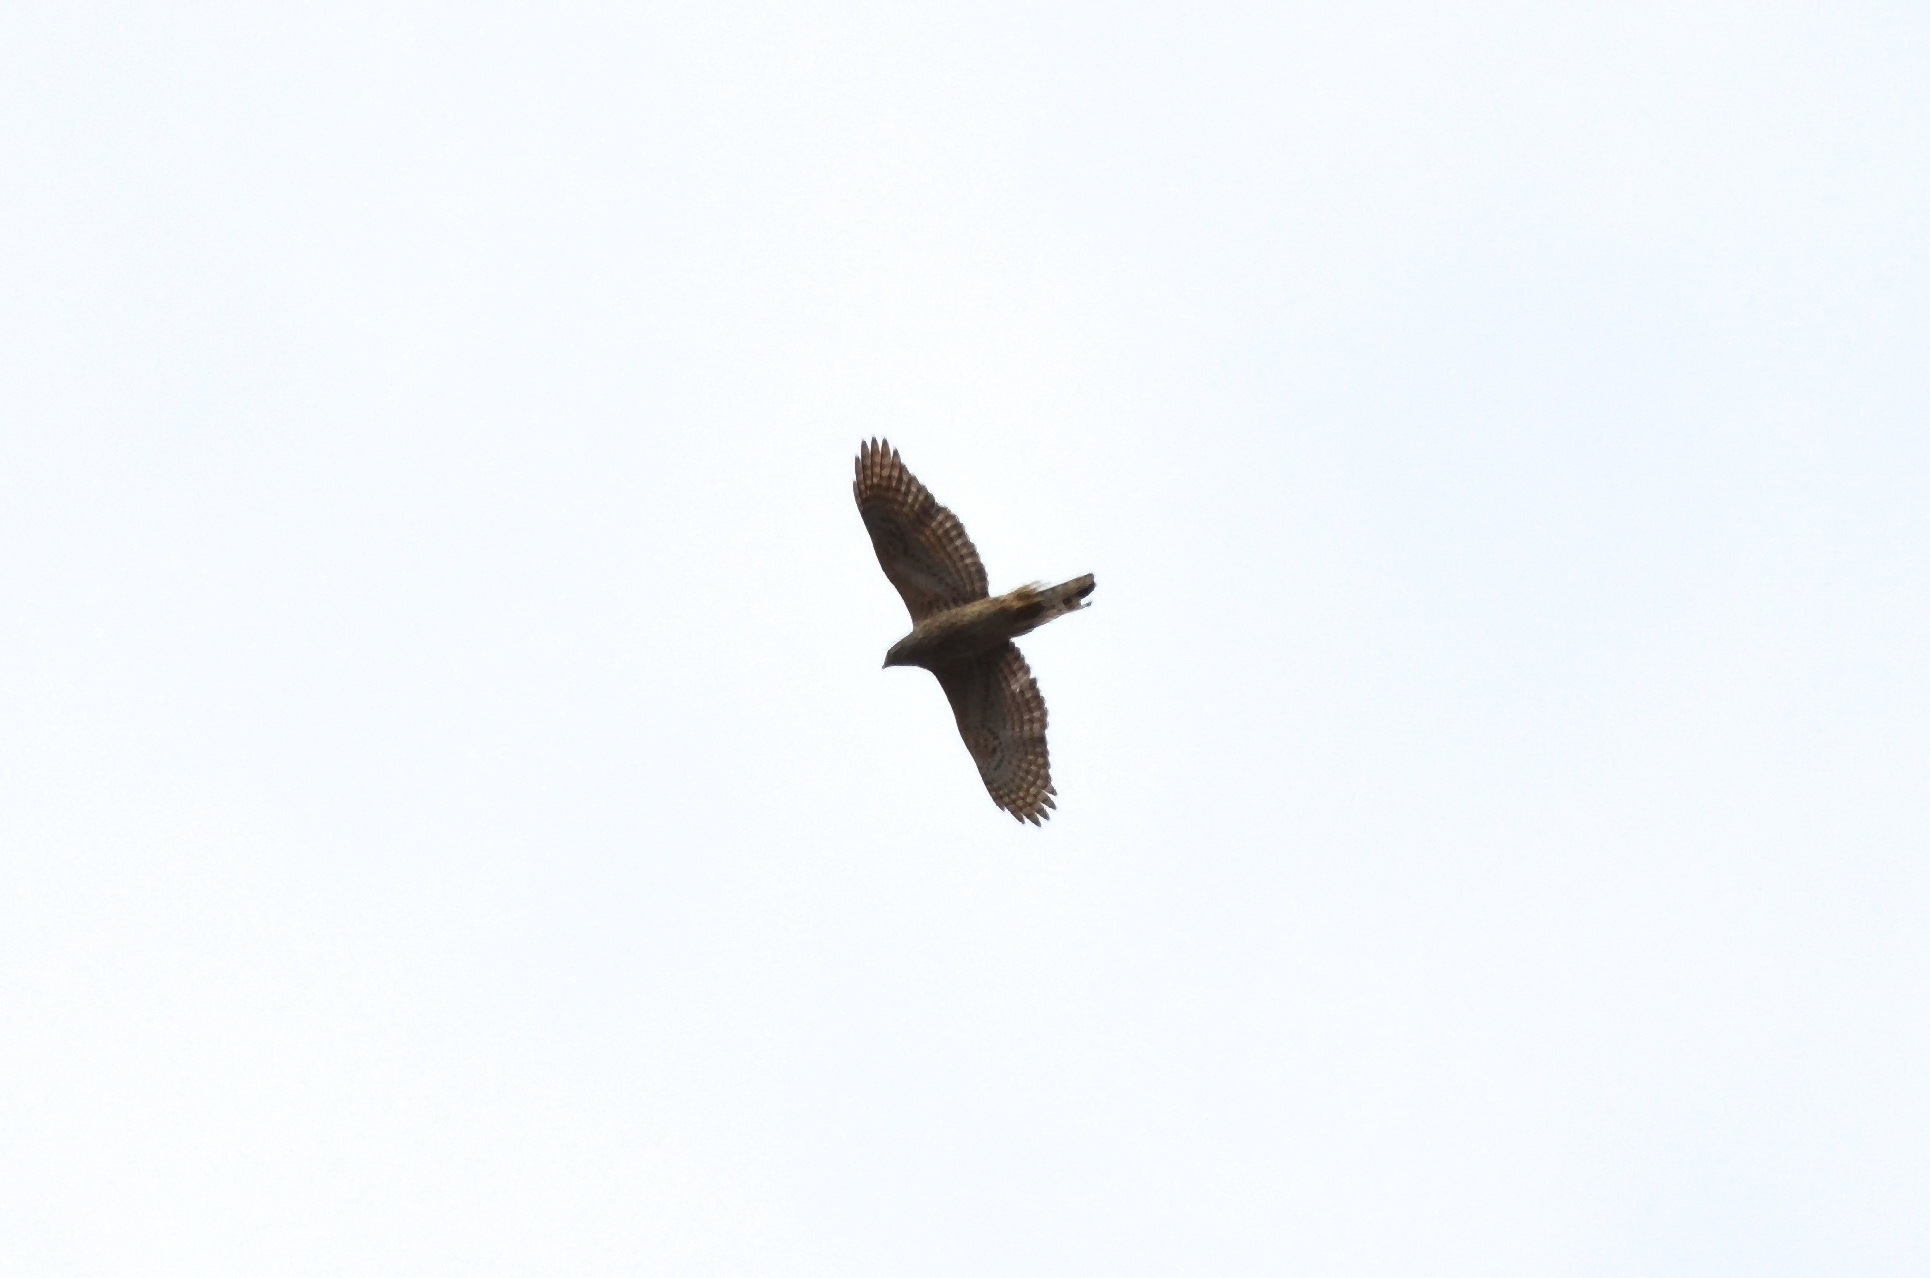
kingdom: Animalia
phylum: Chordata
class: Aves
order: Accipitriformes
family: Accipitridae
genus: Accipiter
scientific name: Accipiter gentilis
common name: Northern goshawk
